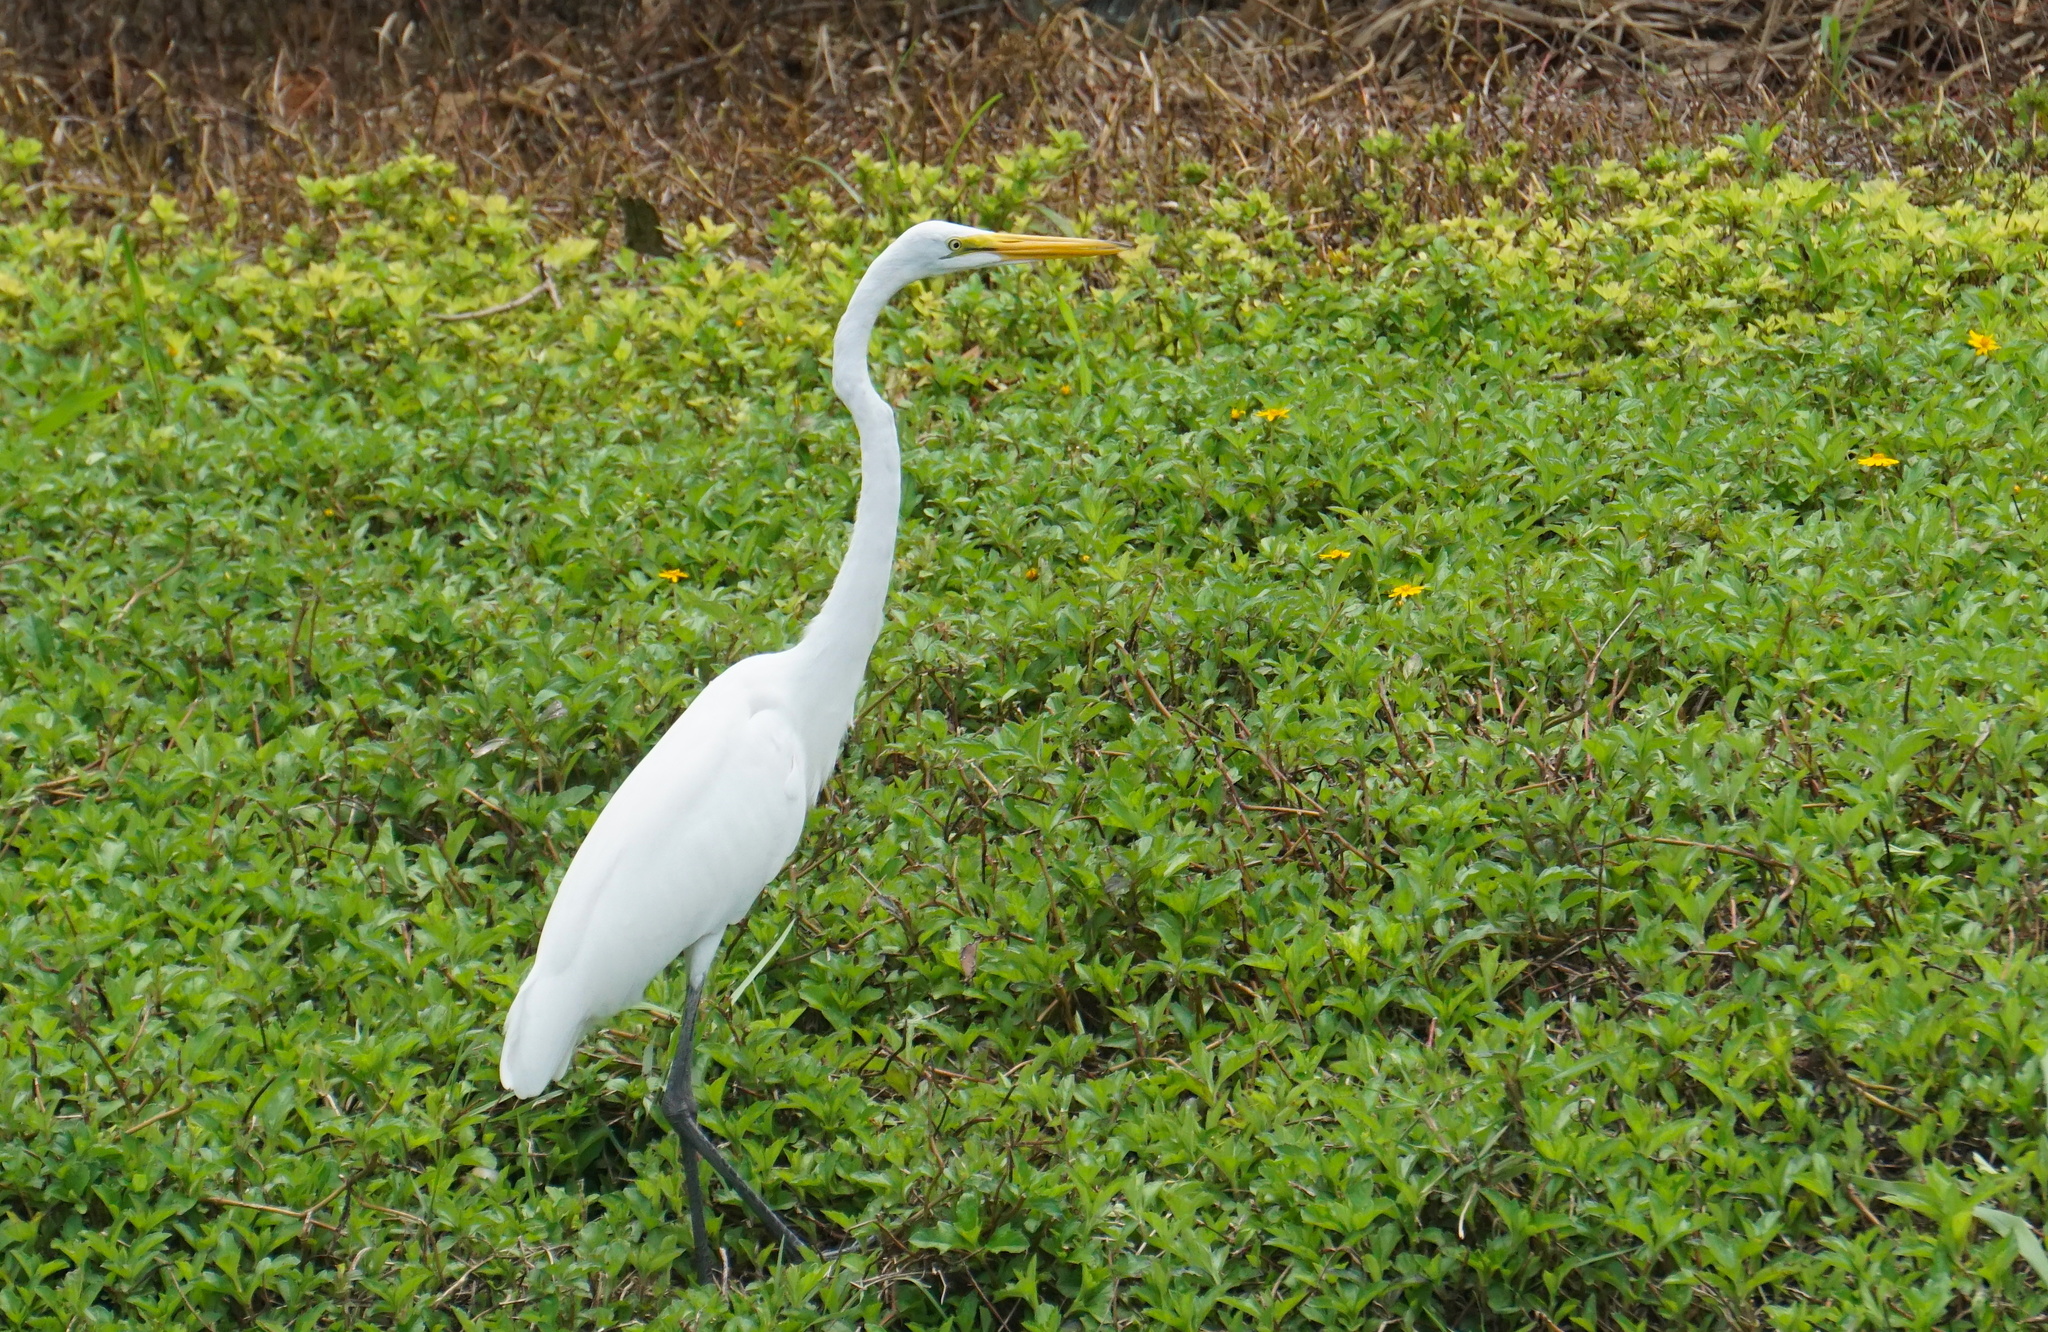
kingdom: Animalia
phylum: Chordata
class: Aves
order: Pelecaniformes
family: Ardeidae
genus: Ardea
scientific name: Ardea alba
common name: Great egret
